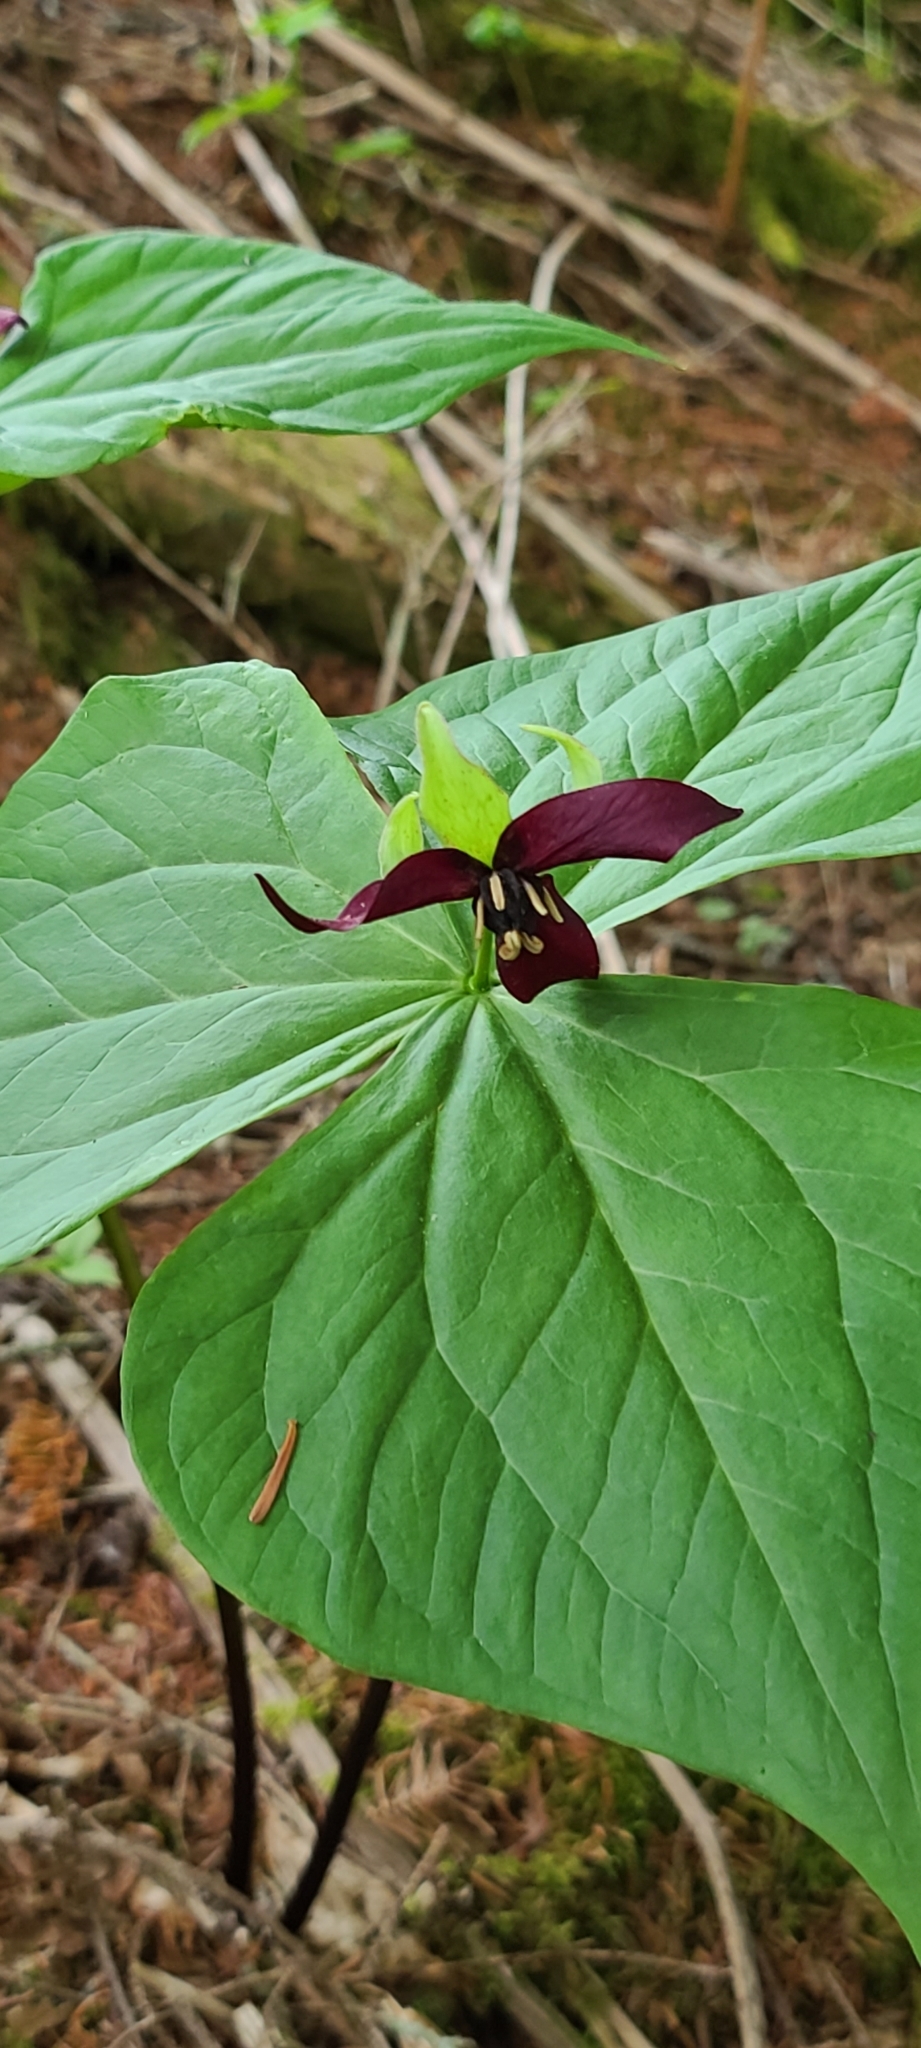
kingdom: Plantae
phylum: Tracheophyta
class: Liliopsida
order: Liliales
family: Melanthiaceae
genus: Trillium
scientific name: Trillium erectum
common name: Purple trillium
